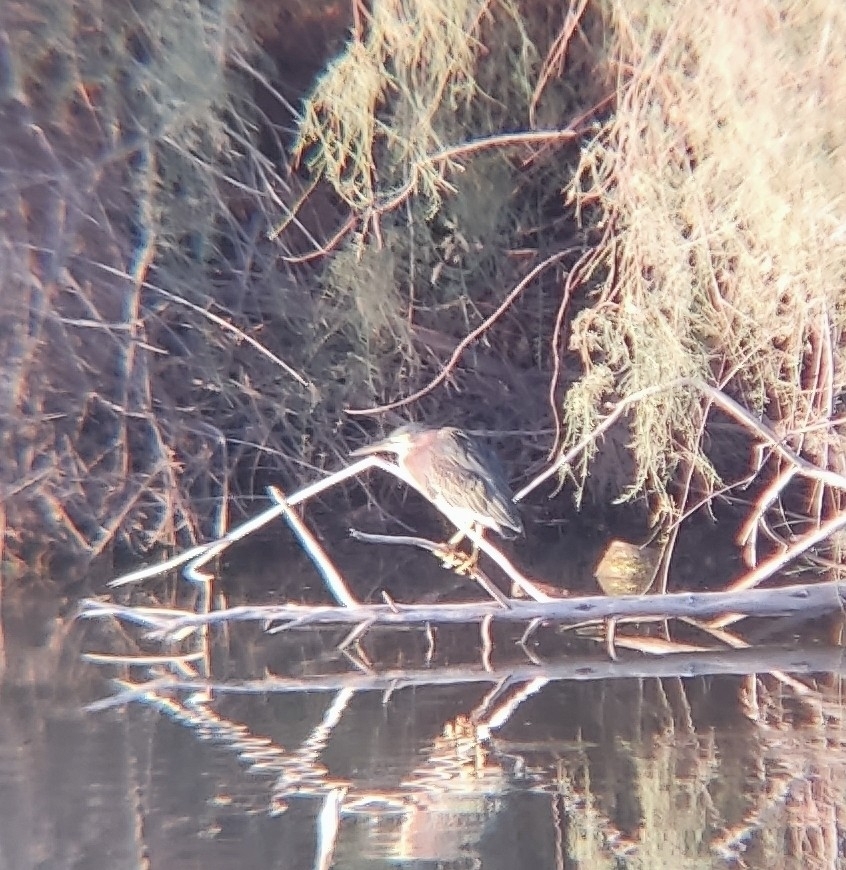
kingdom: Animalia
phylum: Chordata
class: Aves
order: Pelecaniformes
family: Ardeidae
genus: Butorides
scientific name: Butorides virescens
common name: Green heron
